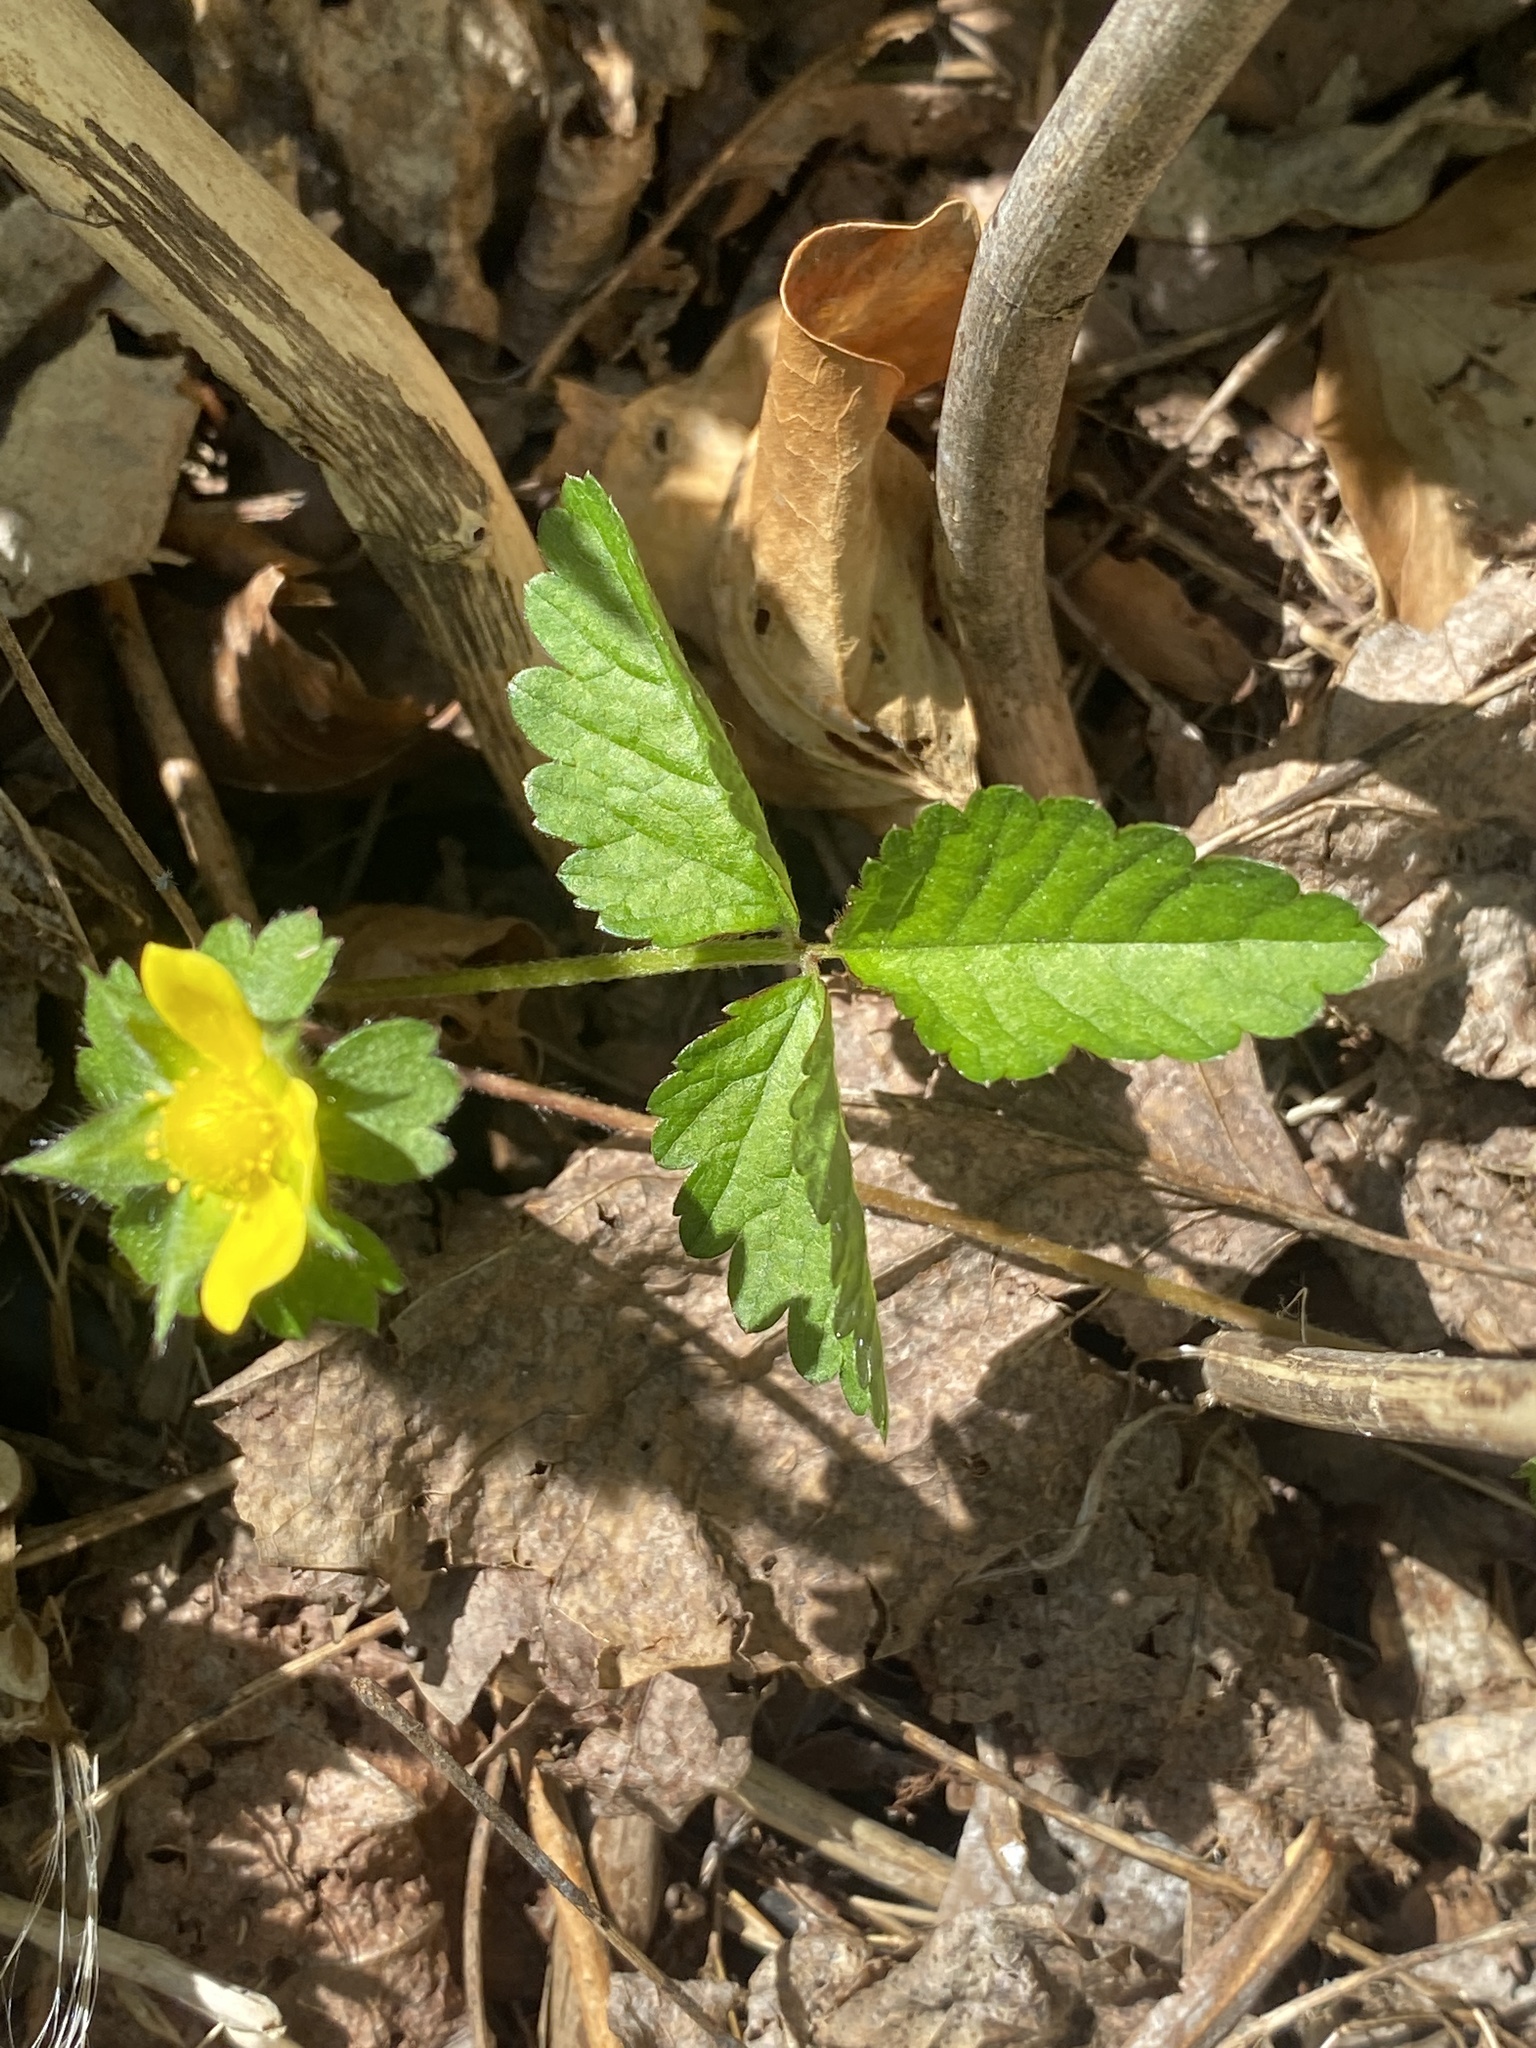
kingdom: Plantae
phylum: Tracheophyta
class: Magnoliopsida
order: Rosales
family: Rosaceae
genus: Potentilla
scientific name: Potentilla indica
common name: Yellow-flowered strawberry
